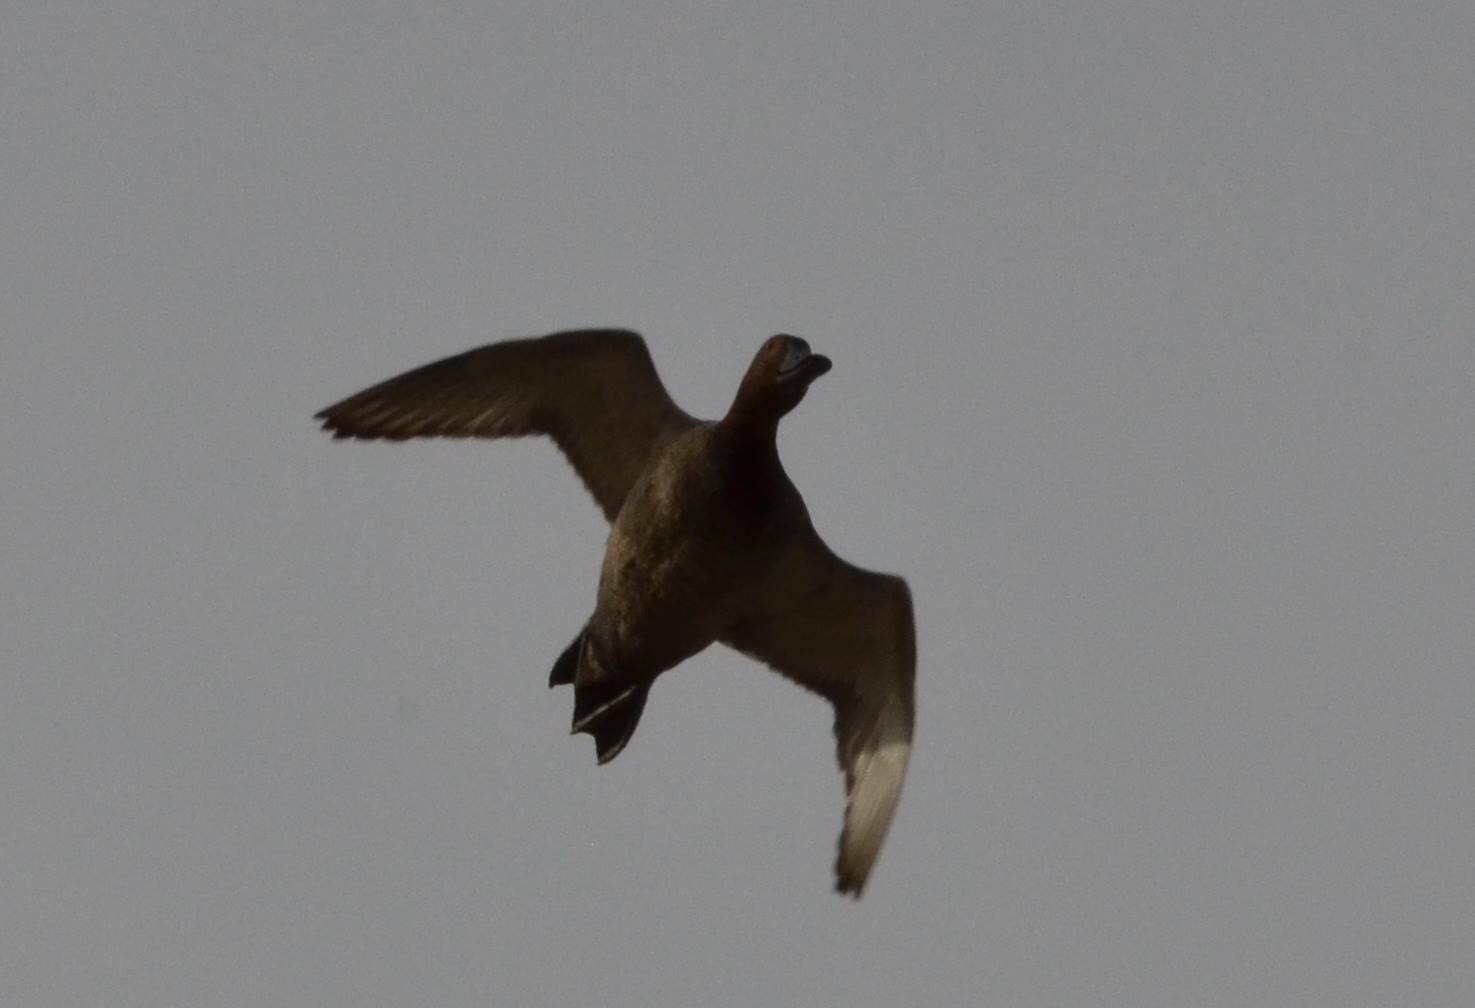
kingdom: Animalia
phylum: Chordata
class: Aves
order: Anseriformes
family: Anatidae
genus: Aythya
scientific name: Aythya ferina
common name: Common pochard
